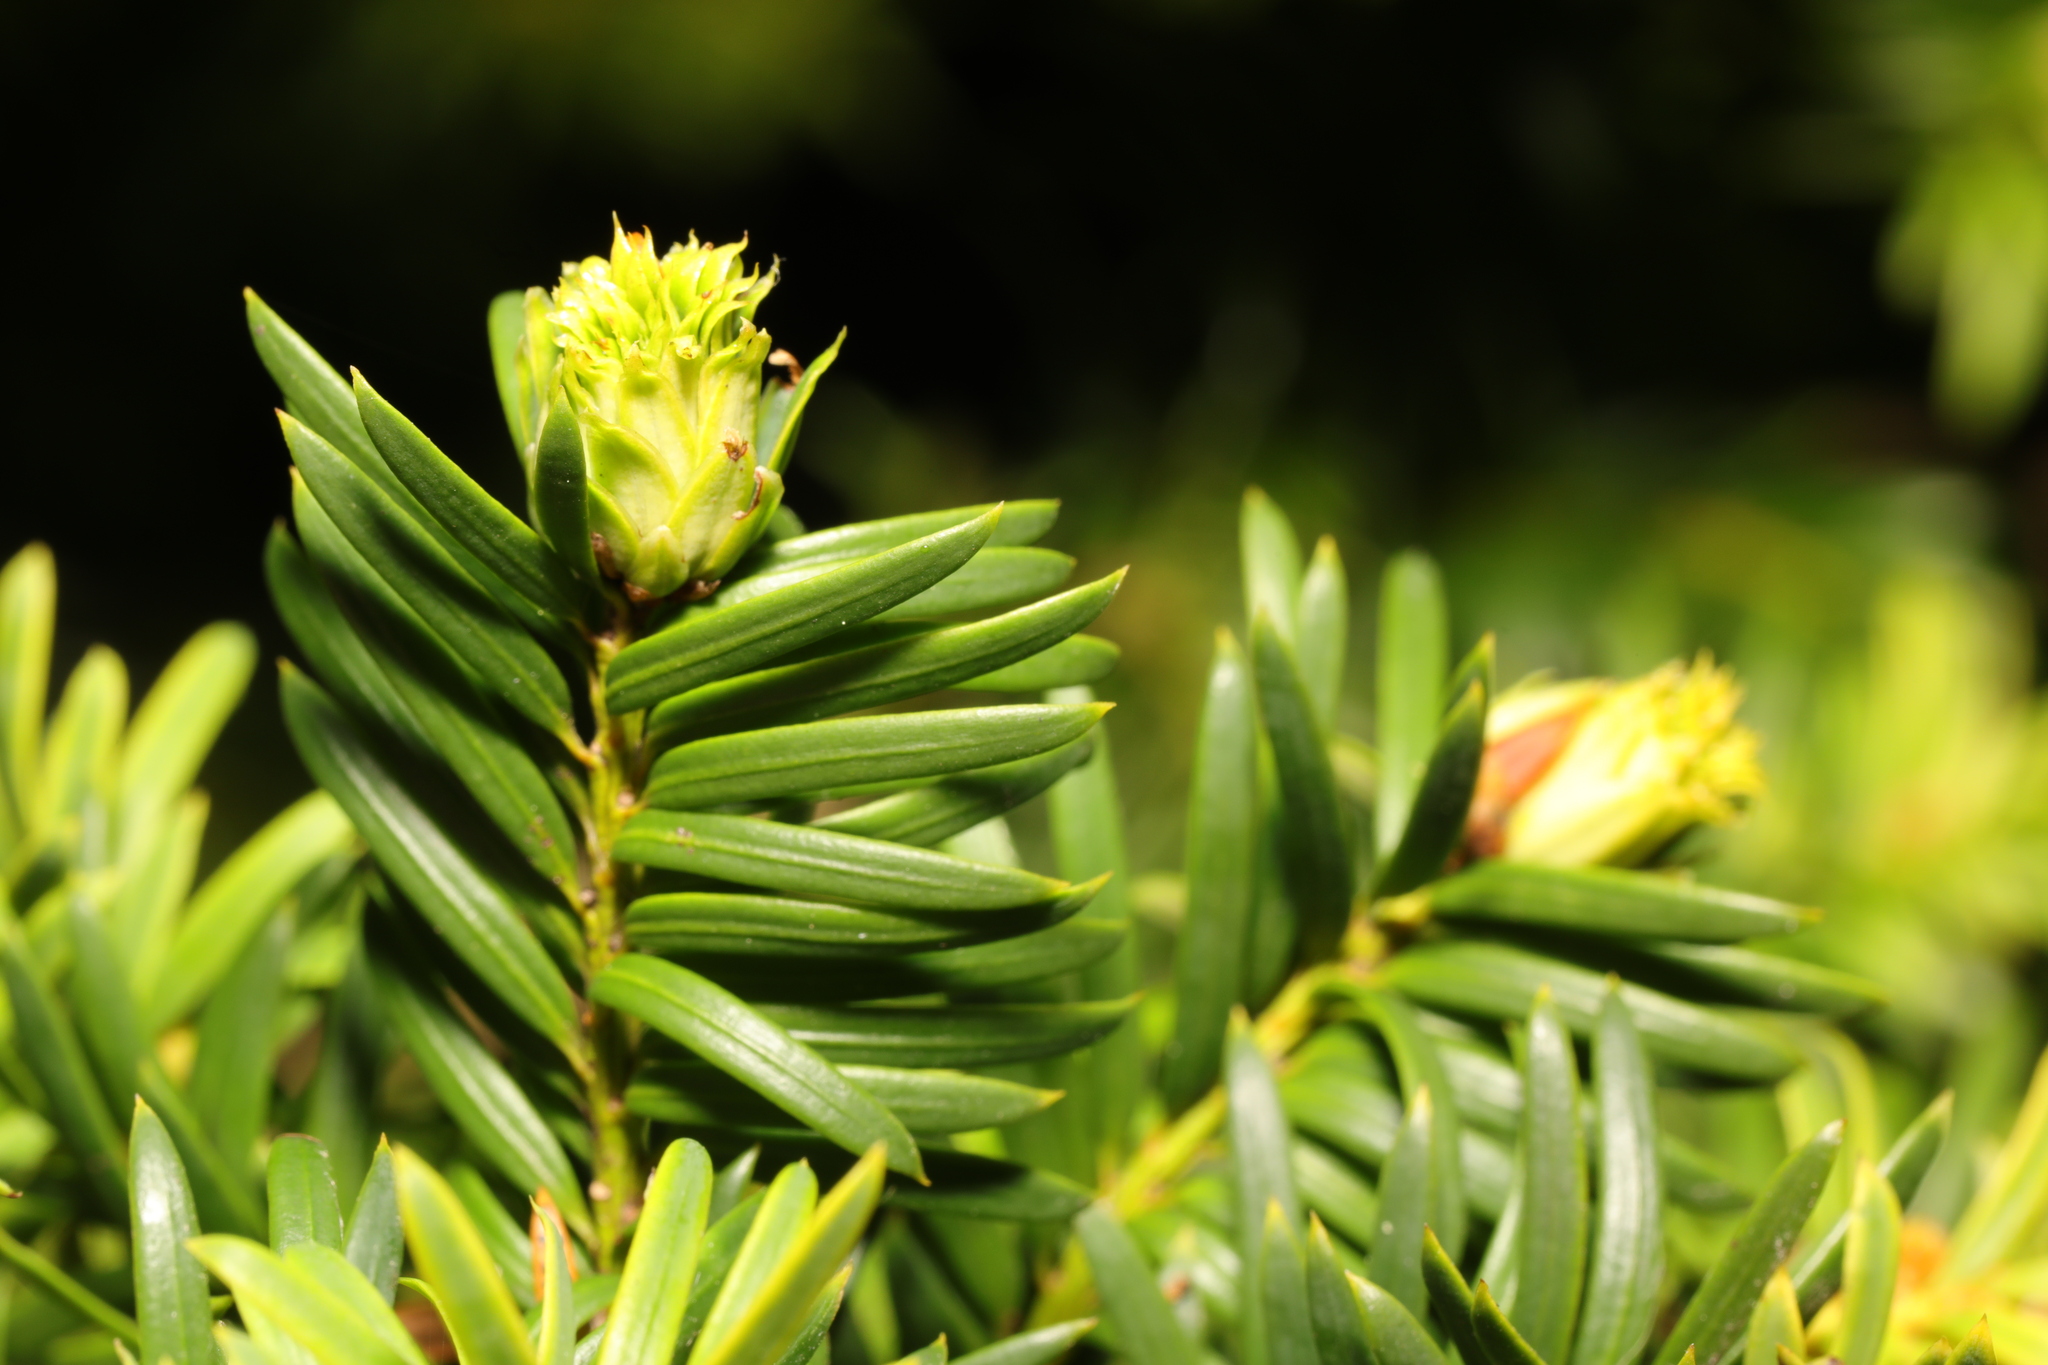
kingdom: Animalia
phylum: Arthropoda
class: Insecta
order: Diptera
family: Cecidomyiidae
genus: Taxomyia
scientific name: Taxomyia taxi
